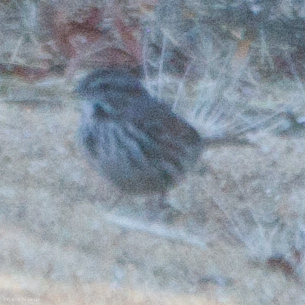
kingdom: Animalia
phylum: Chordata
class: Aves
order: Passeriformes
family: Passerellidae
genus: Melospiza
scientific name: Melospiza melodia
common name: Song sparrow
